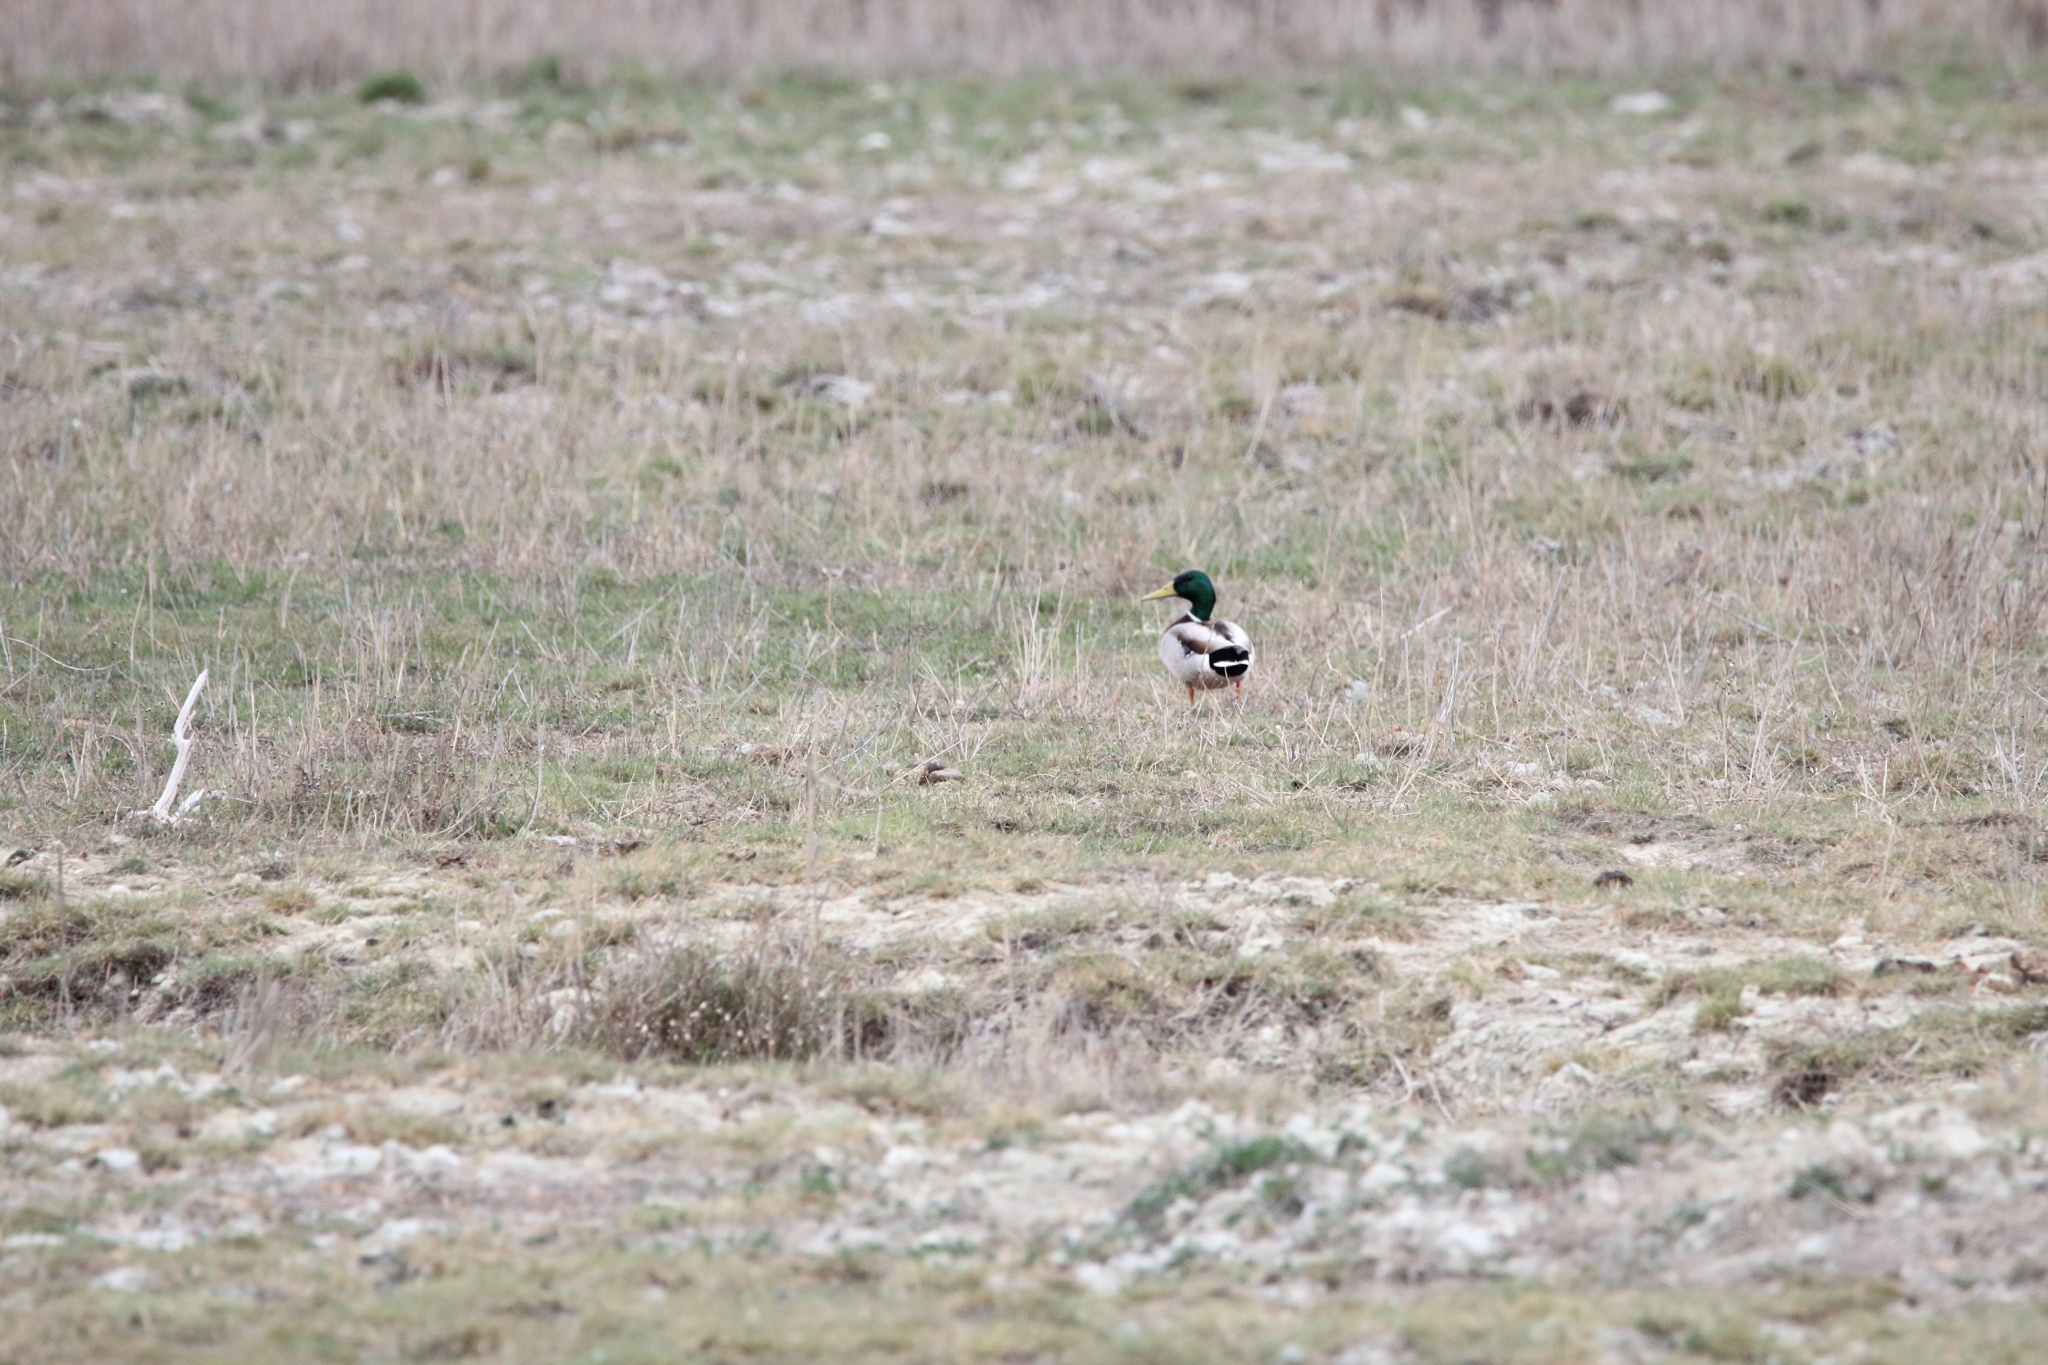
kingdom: Animalia
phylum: Chordata
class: Aves
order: Anseriformes
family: Anatidae
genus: Anas
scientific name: Anas platyrhynchos
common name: Mallard
